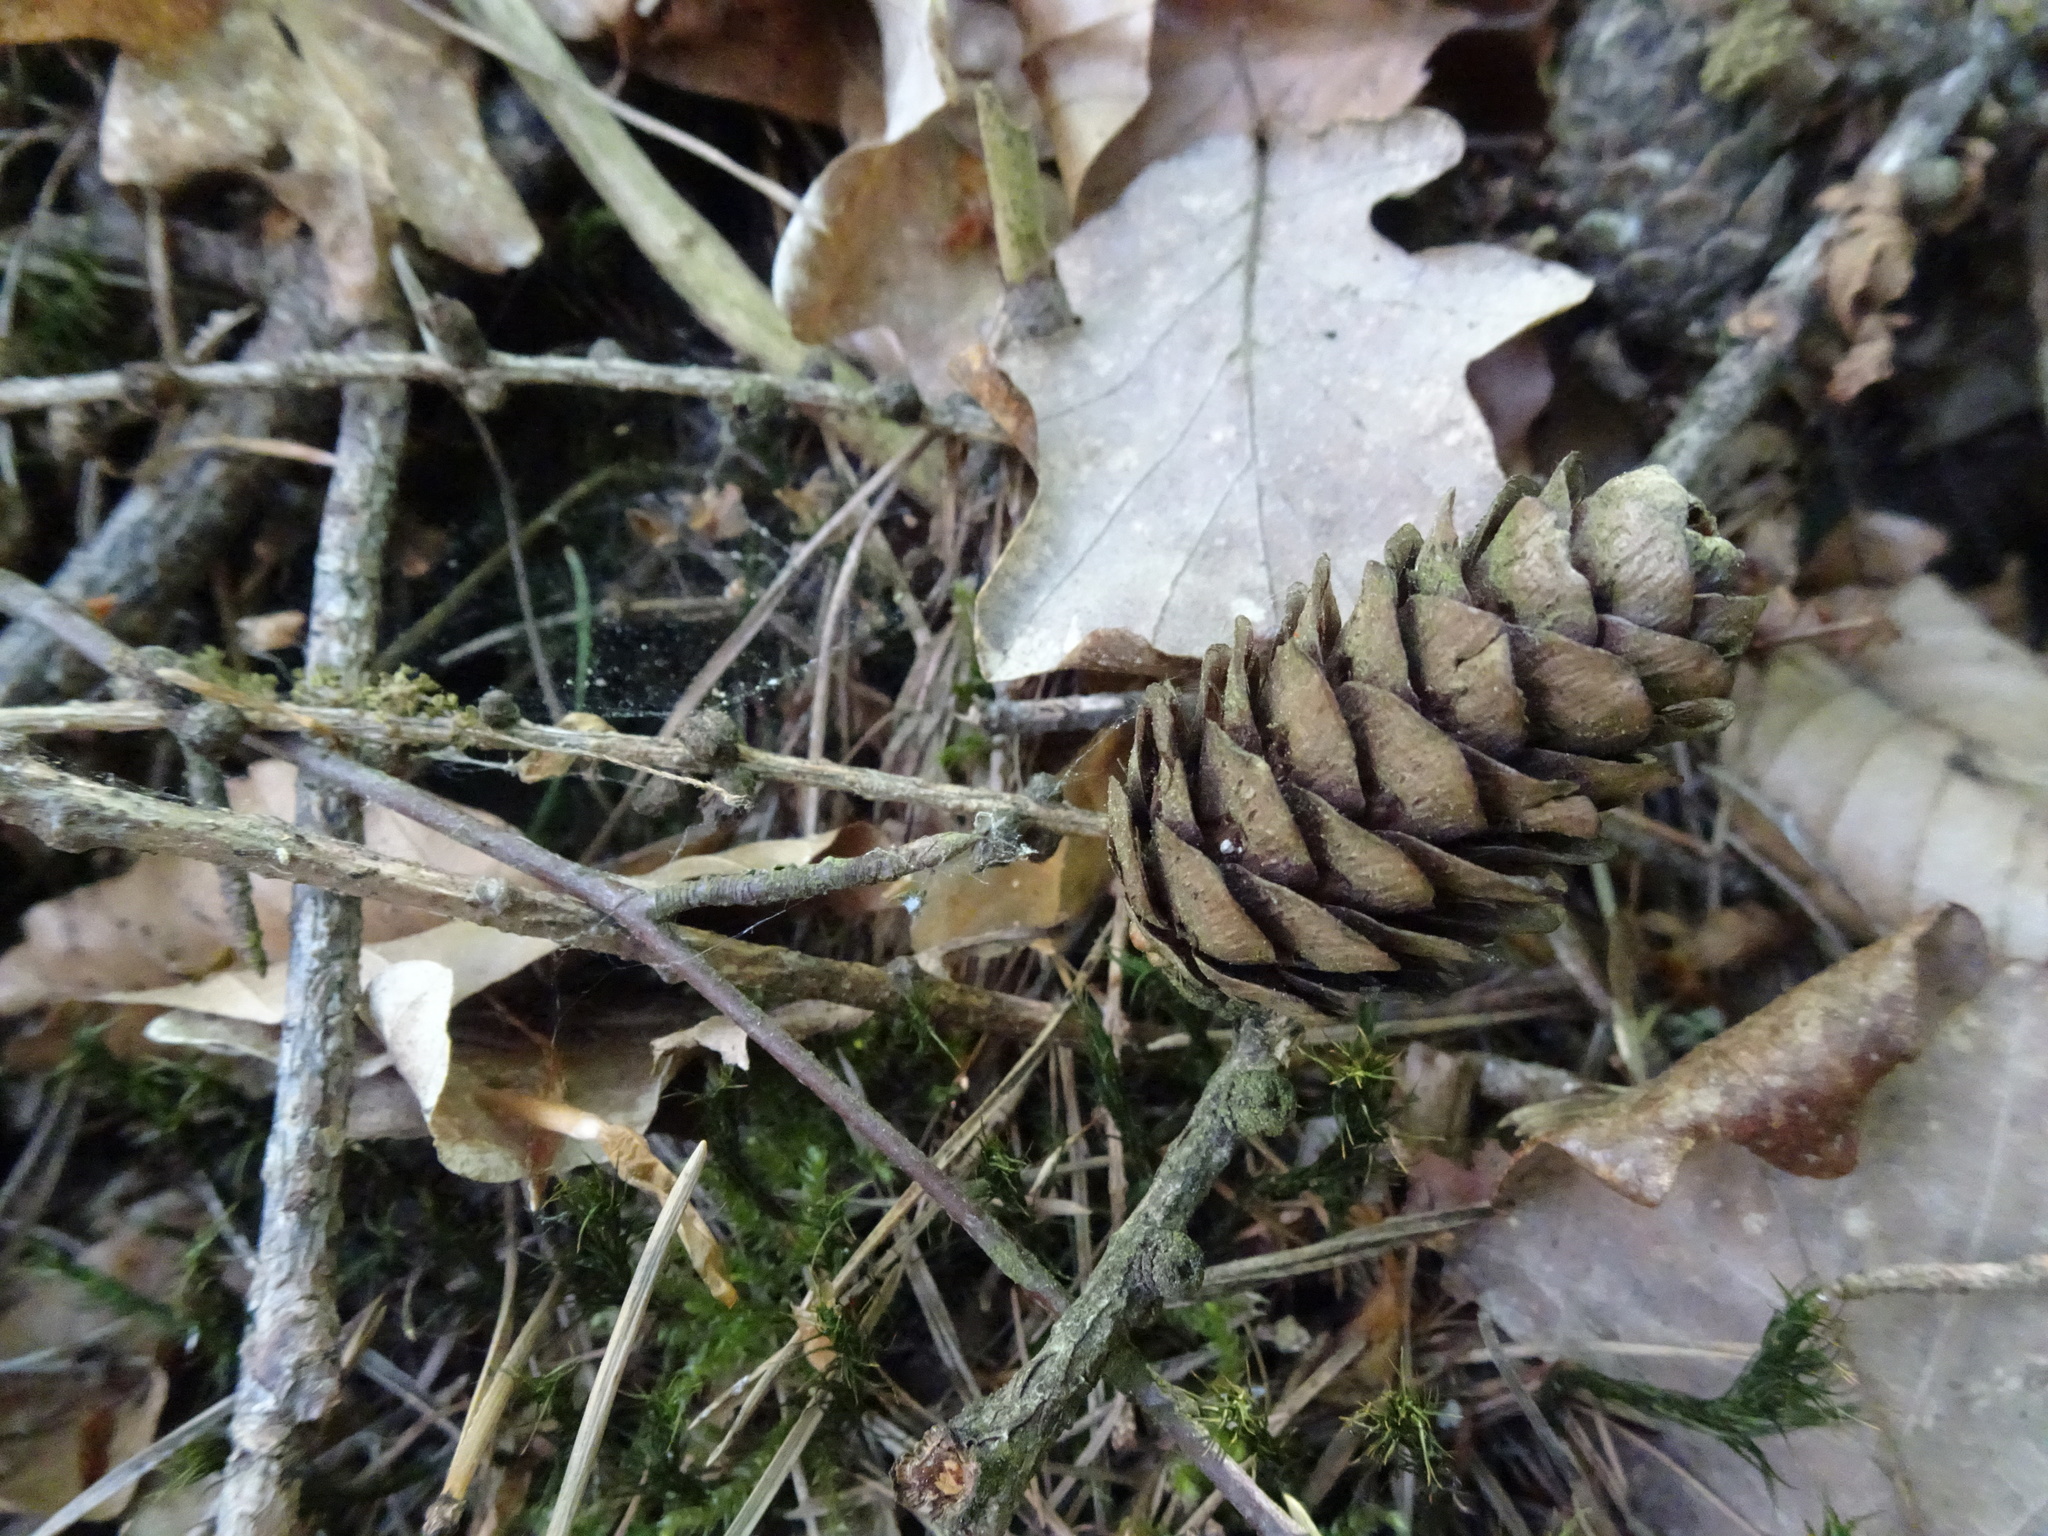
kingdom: Plantae
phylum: Tracheophyta
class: Pinopsida
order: Pinales
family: Pinaceae
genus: Larix
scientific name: Larix decidua
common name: European larch
